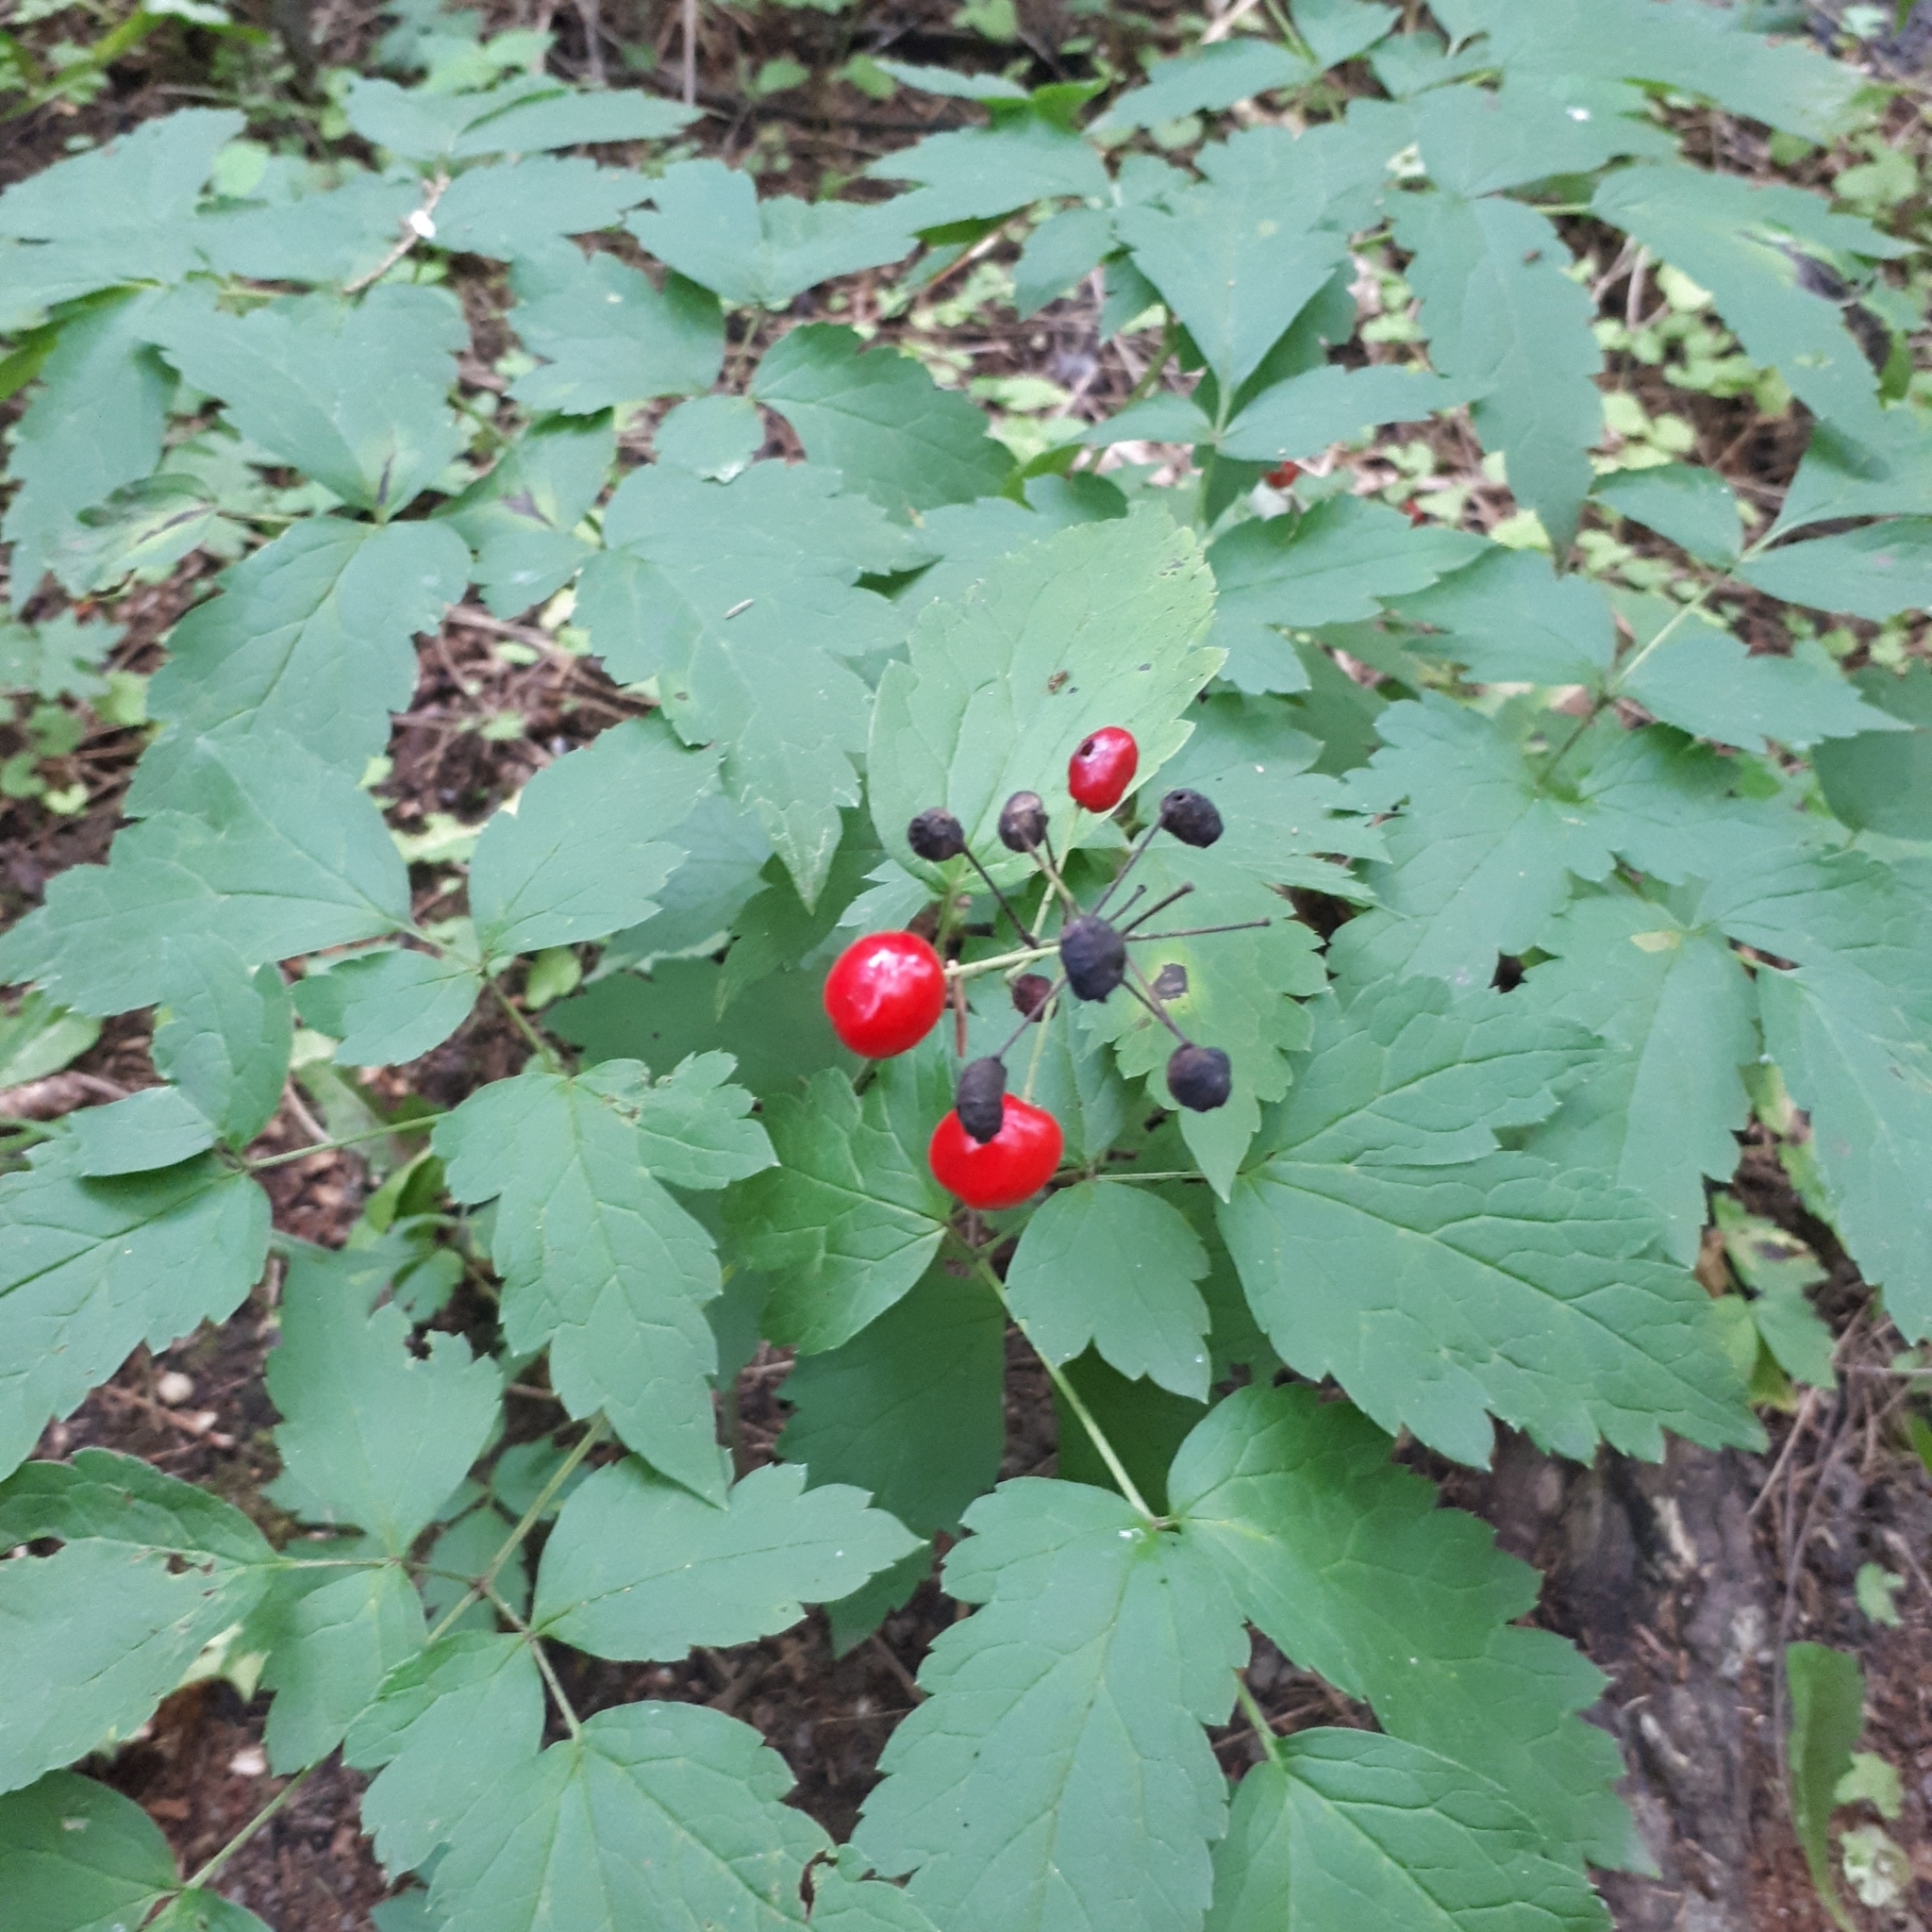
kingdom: Plantae
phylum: Tracheophyta
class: Magnoliopsida
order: Ranunculales
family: Ranunculaceae
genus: Actaea
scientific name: Actaea rubra
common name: Red baneberry
